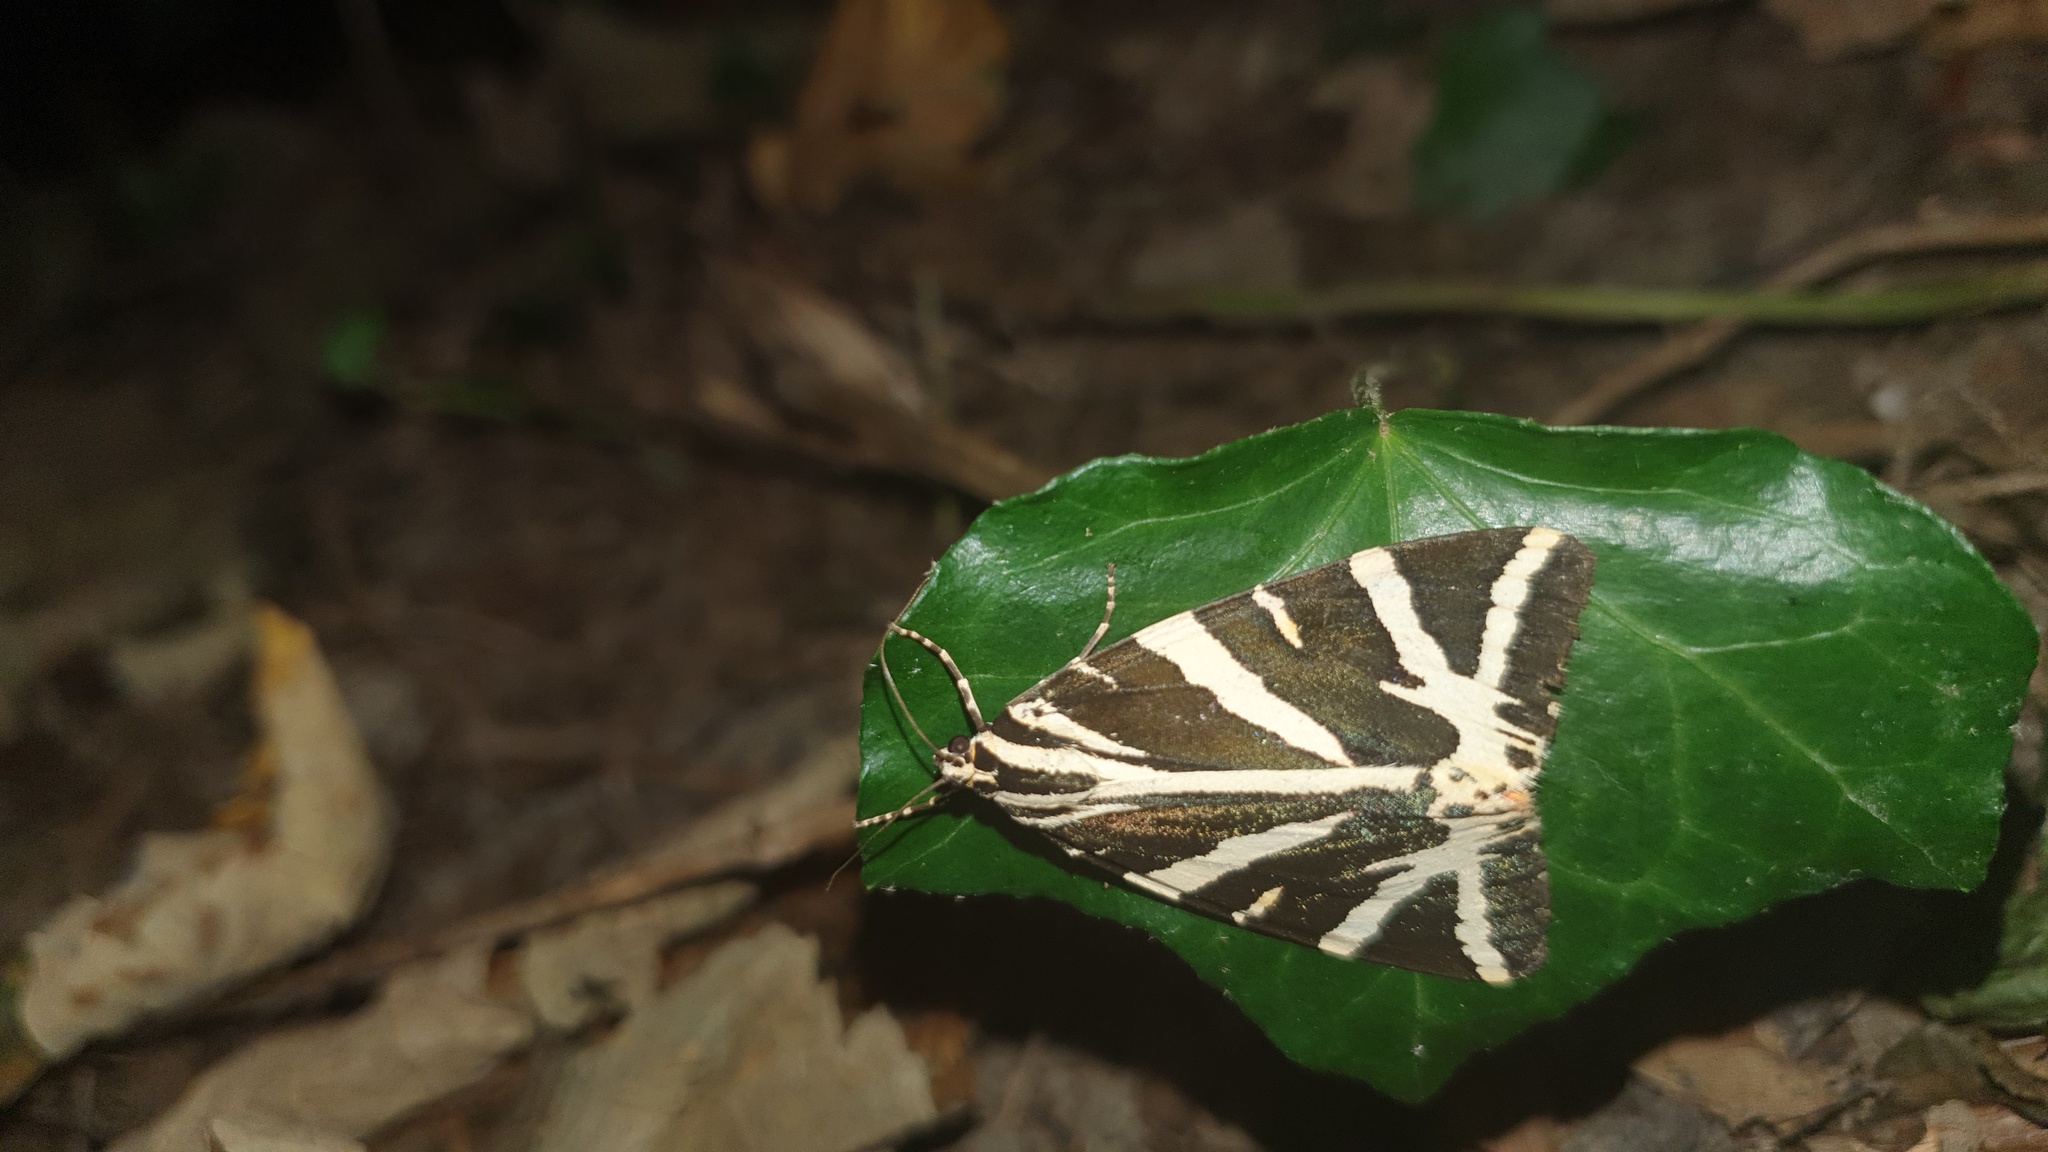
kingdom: Animalia
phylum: Arthropoda
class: Insecta
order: Lepidoptera
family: Erebidae
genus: Euplagia
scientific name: Euplagia quadripunctaria
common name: Jersey tiger
